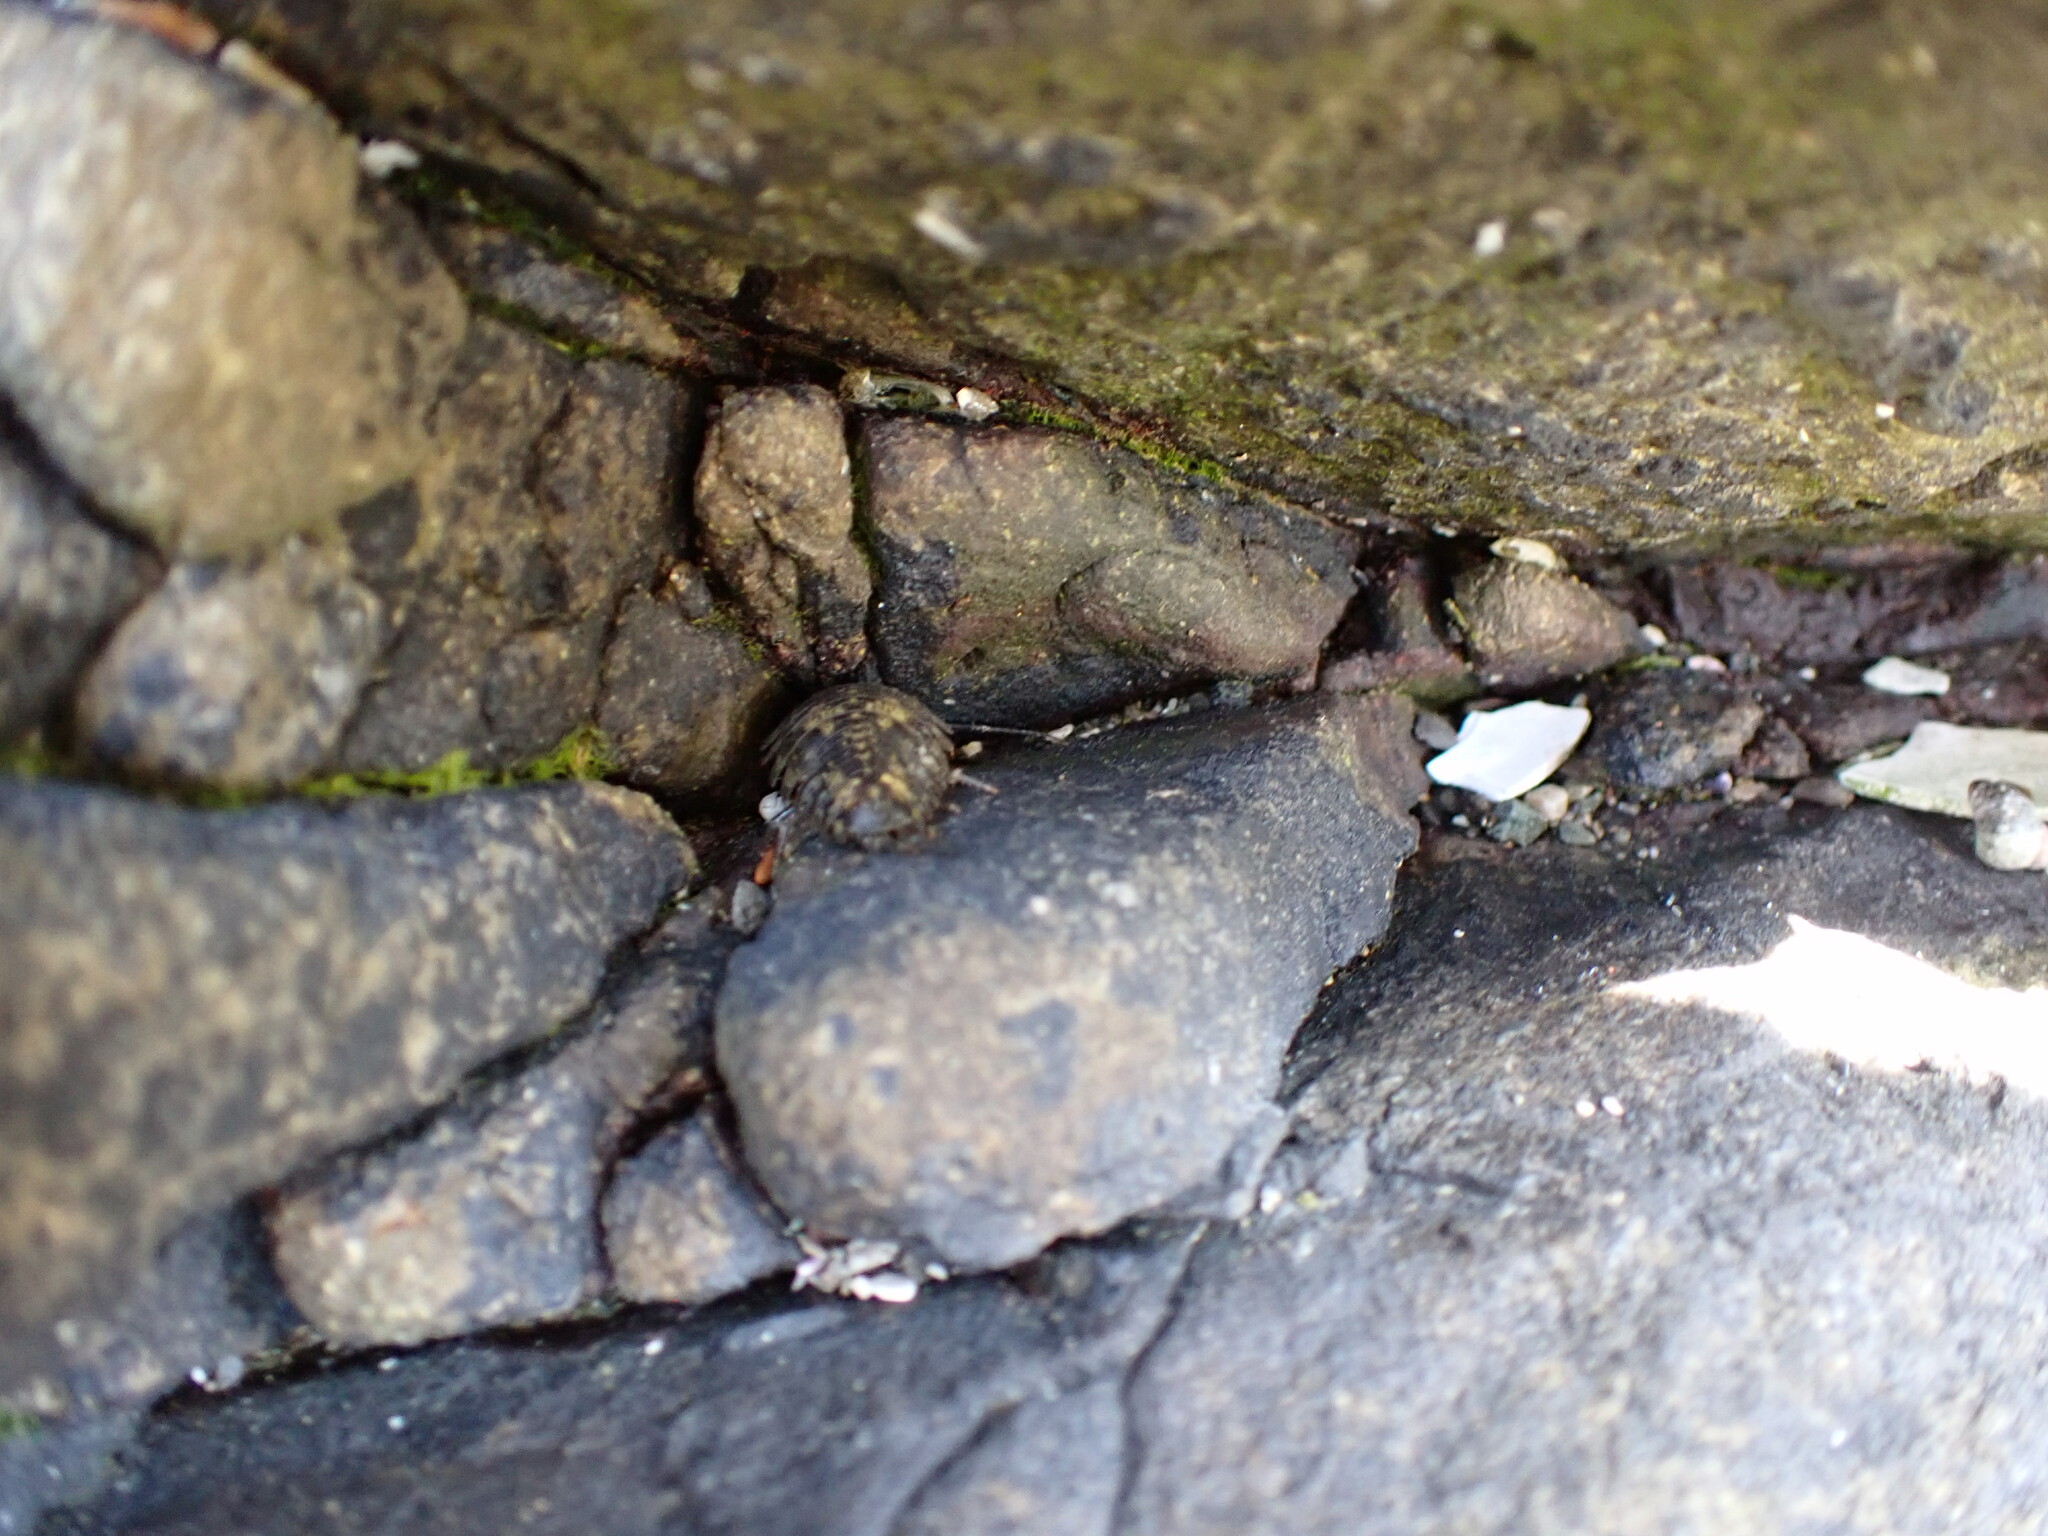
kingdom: Animalia
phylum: Arthropoda
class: Malacostraca
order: Isopoda
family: Ligiidae
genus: Ligia
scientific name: Ligia pallasii
